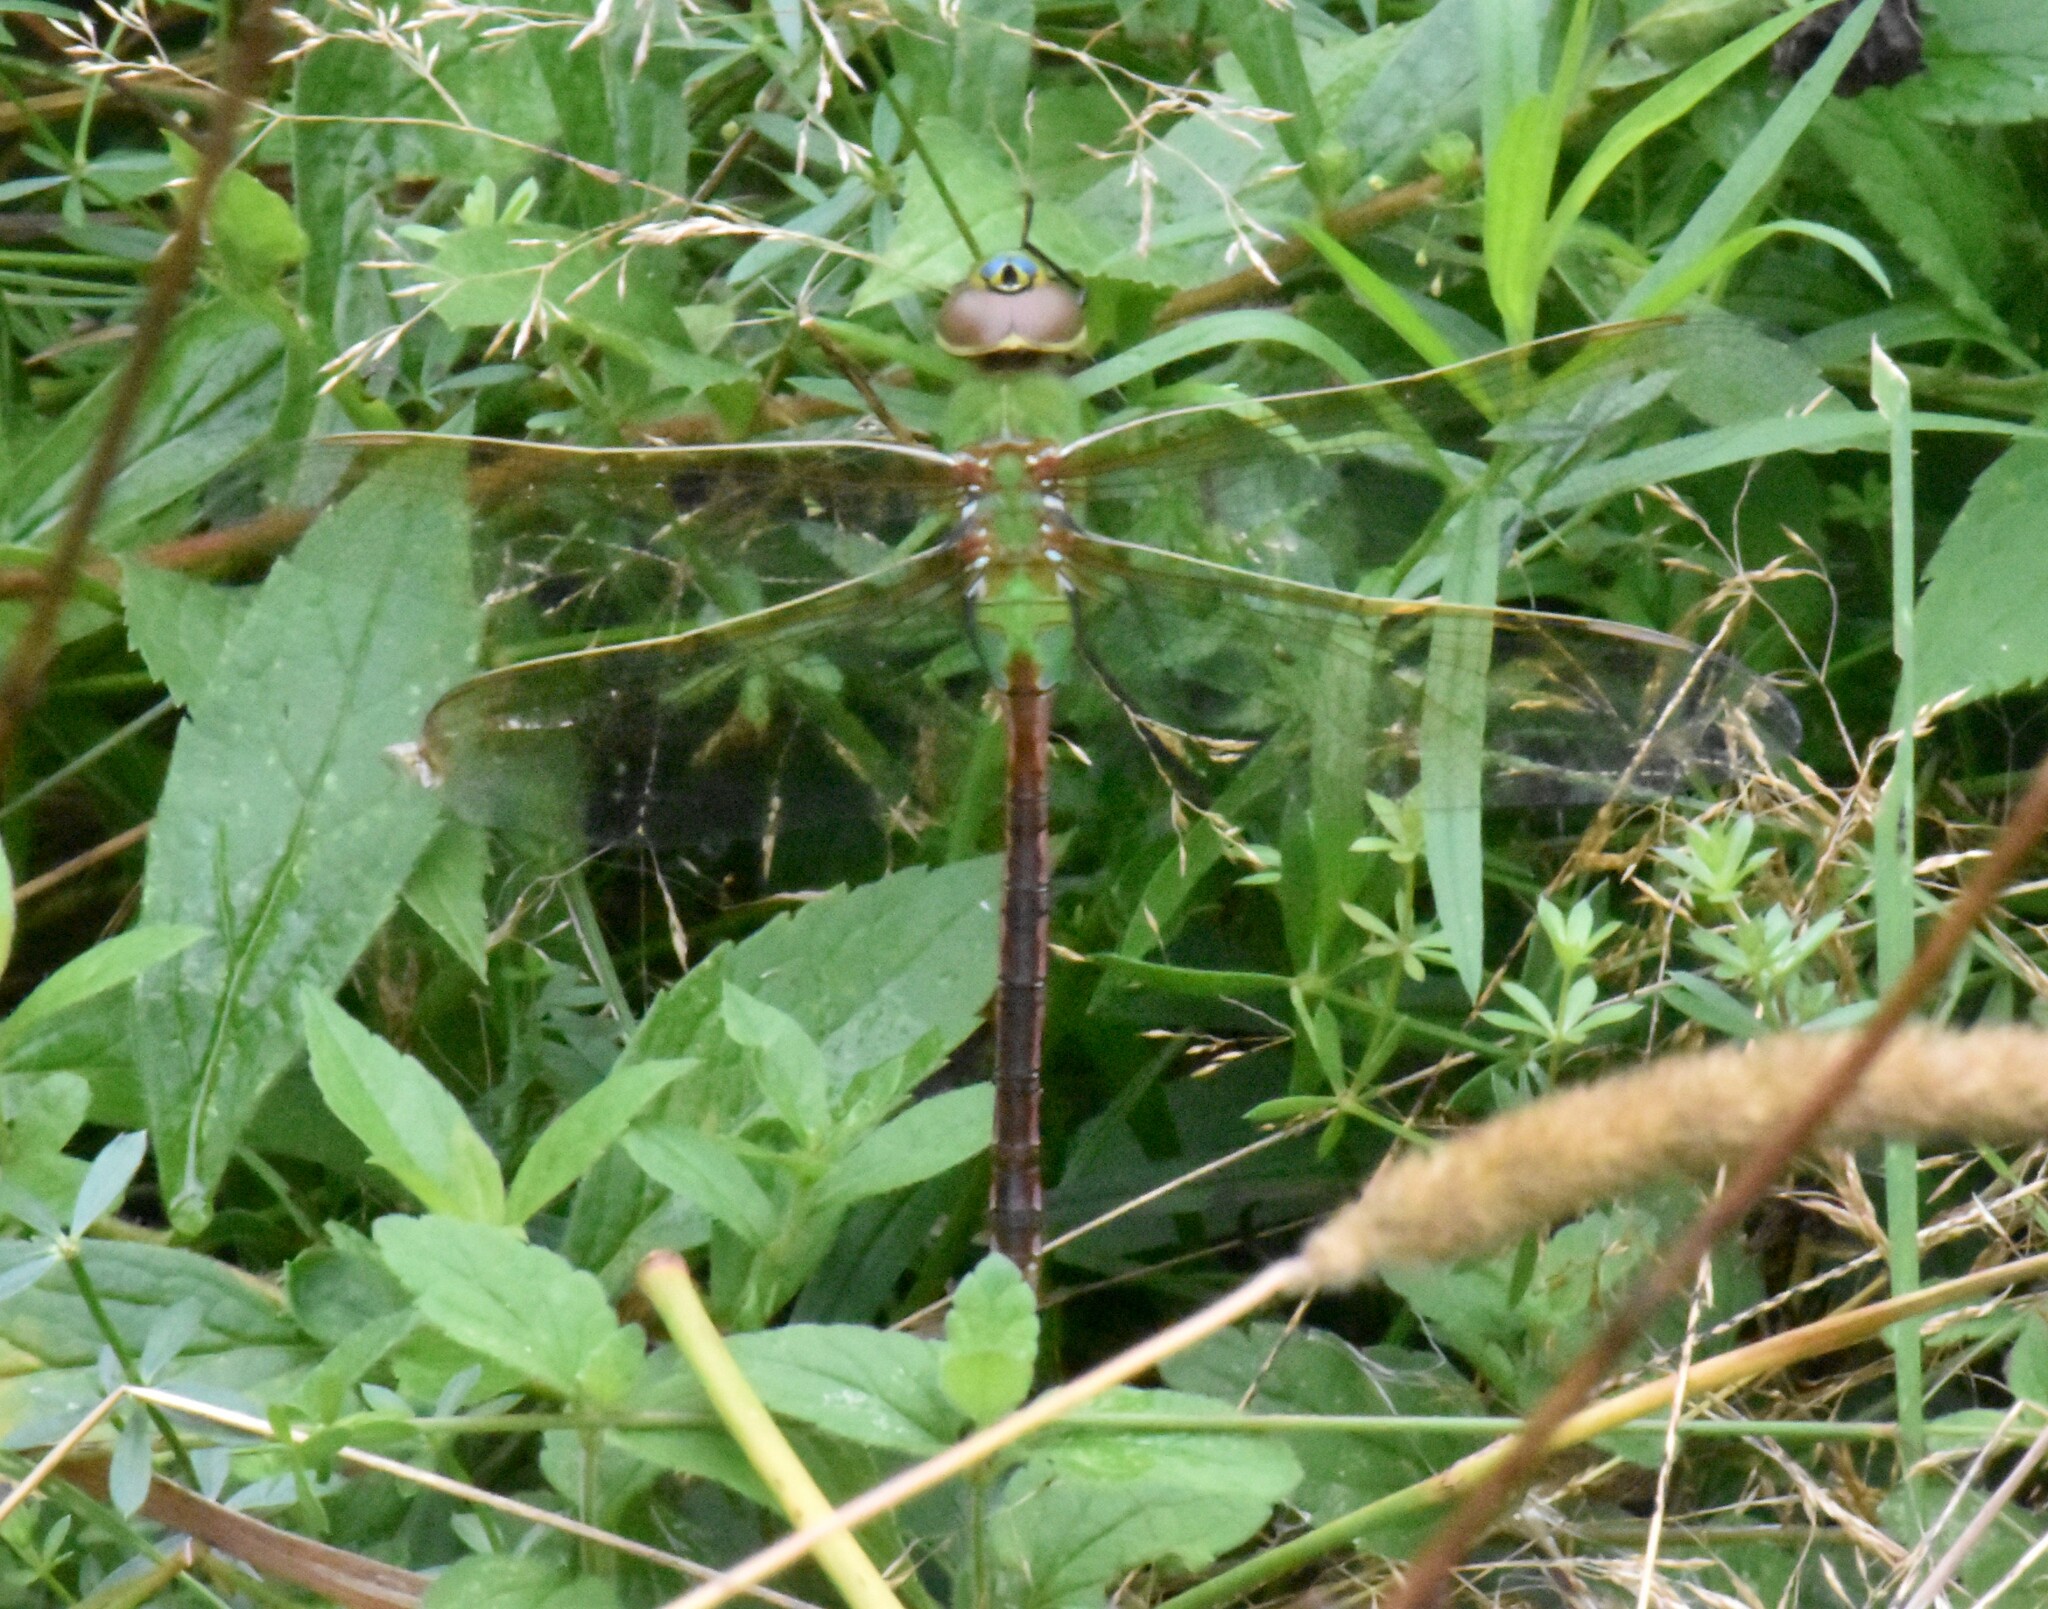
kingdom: Animalia
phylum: Arthropoda
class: Insecta
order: Odonata
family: Aeshnidae
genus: Anax
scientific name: Anax junius
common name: Common green darner
